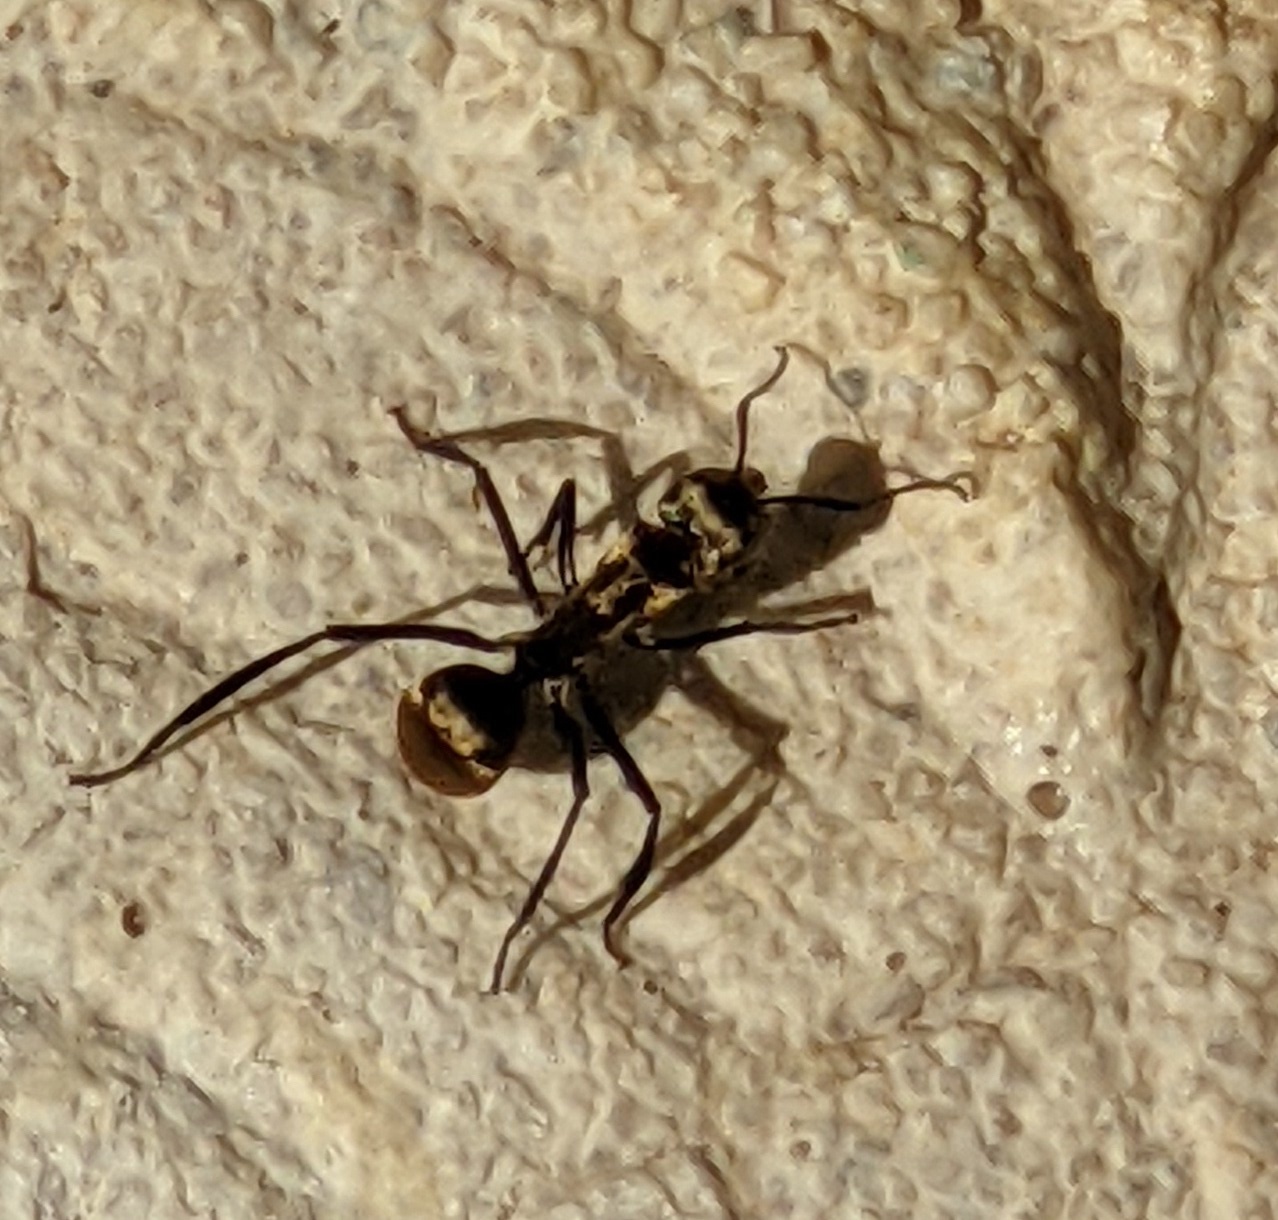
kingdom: Animalia
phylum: Arthropoda
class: Insecta
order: Hymenoptera
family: Formicidae
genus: Camponotus
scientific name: Camponotus sericeiventris
